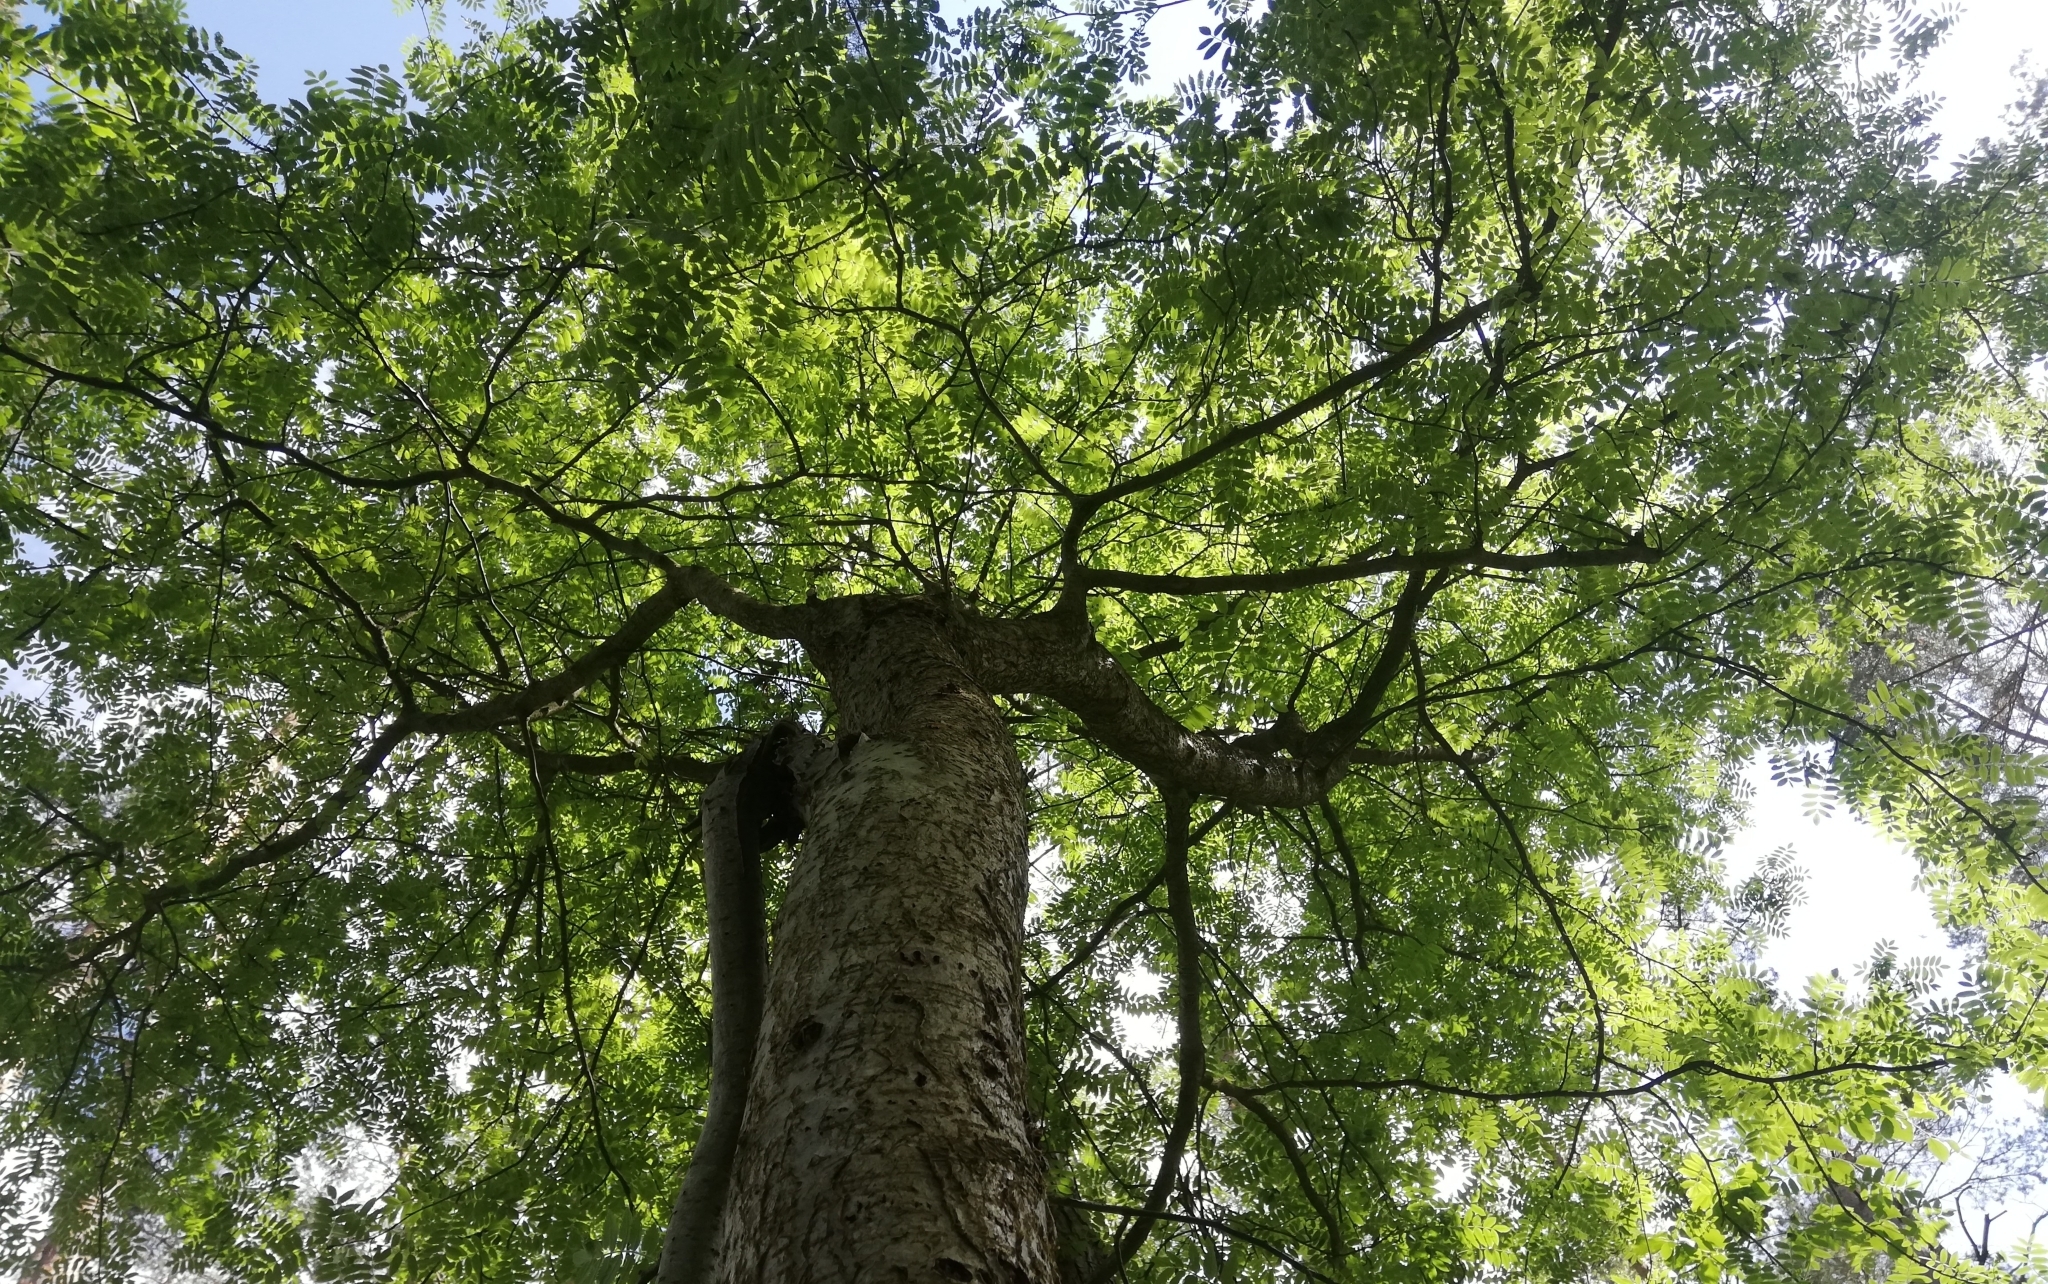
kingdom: Plantae
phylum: Tracheophyta
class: Magnoliopsida
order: Rosales
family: Rosaceae
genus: Sorbus
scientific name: Sorbus aucuparia
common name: Rowan
